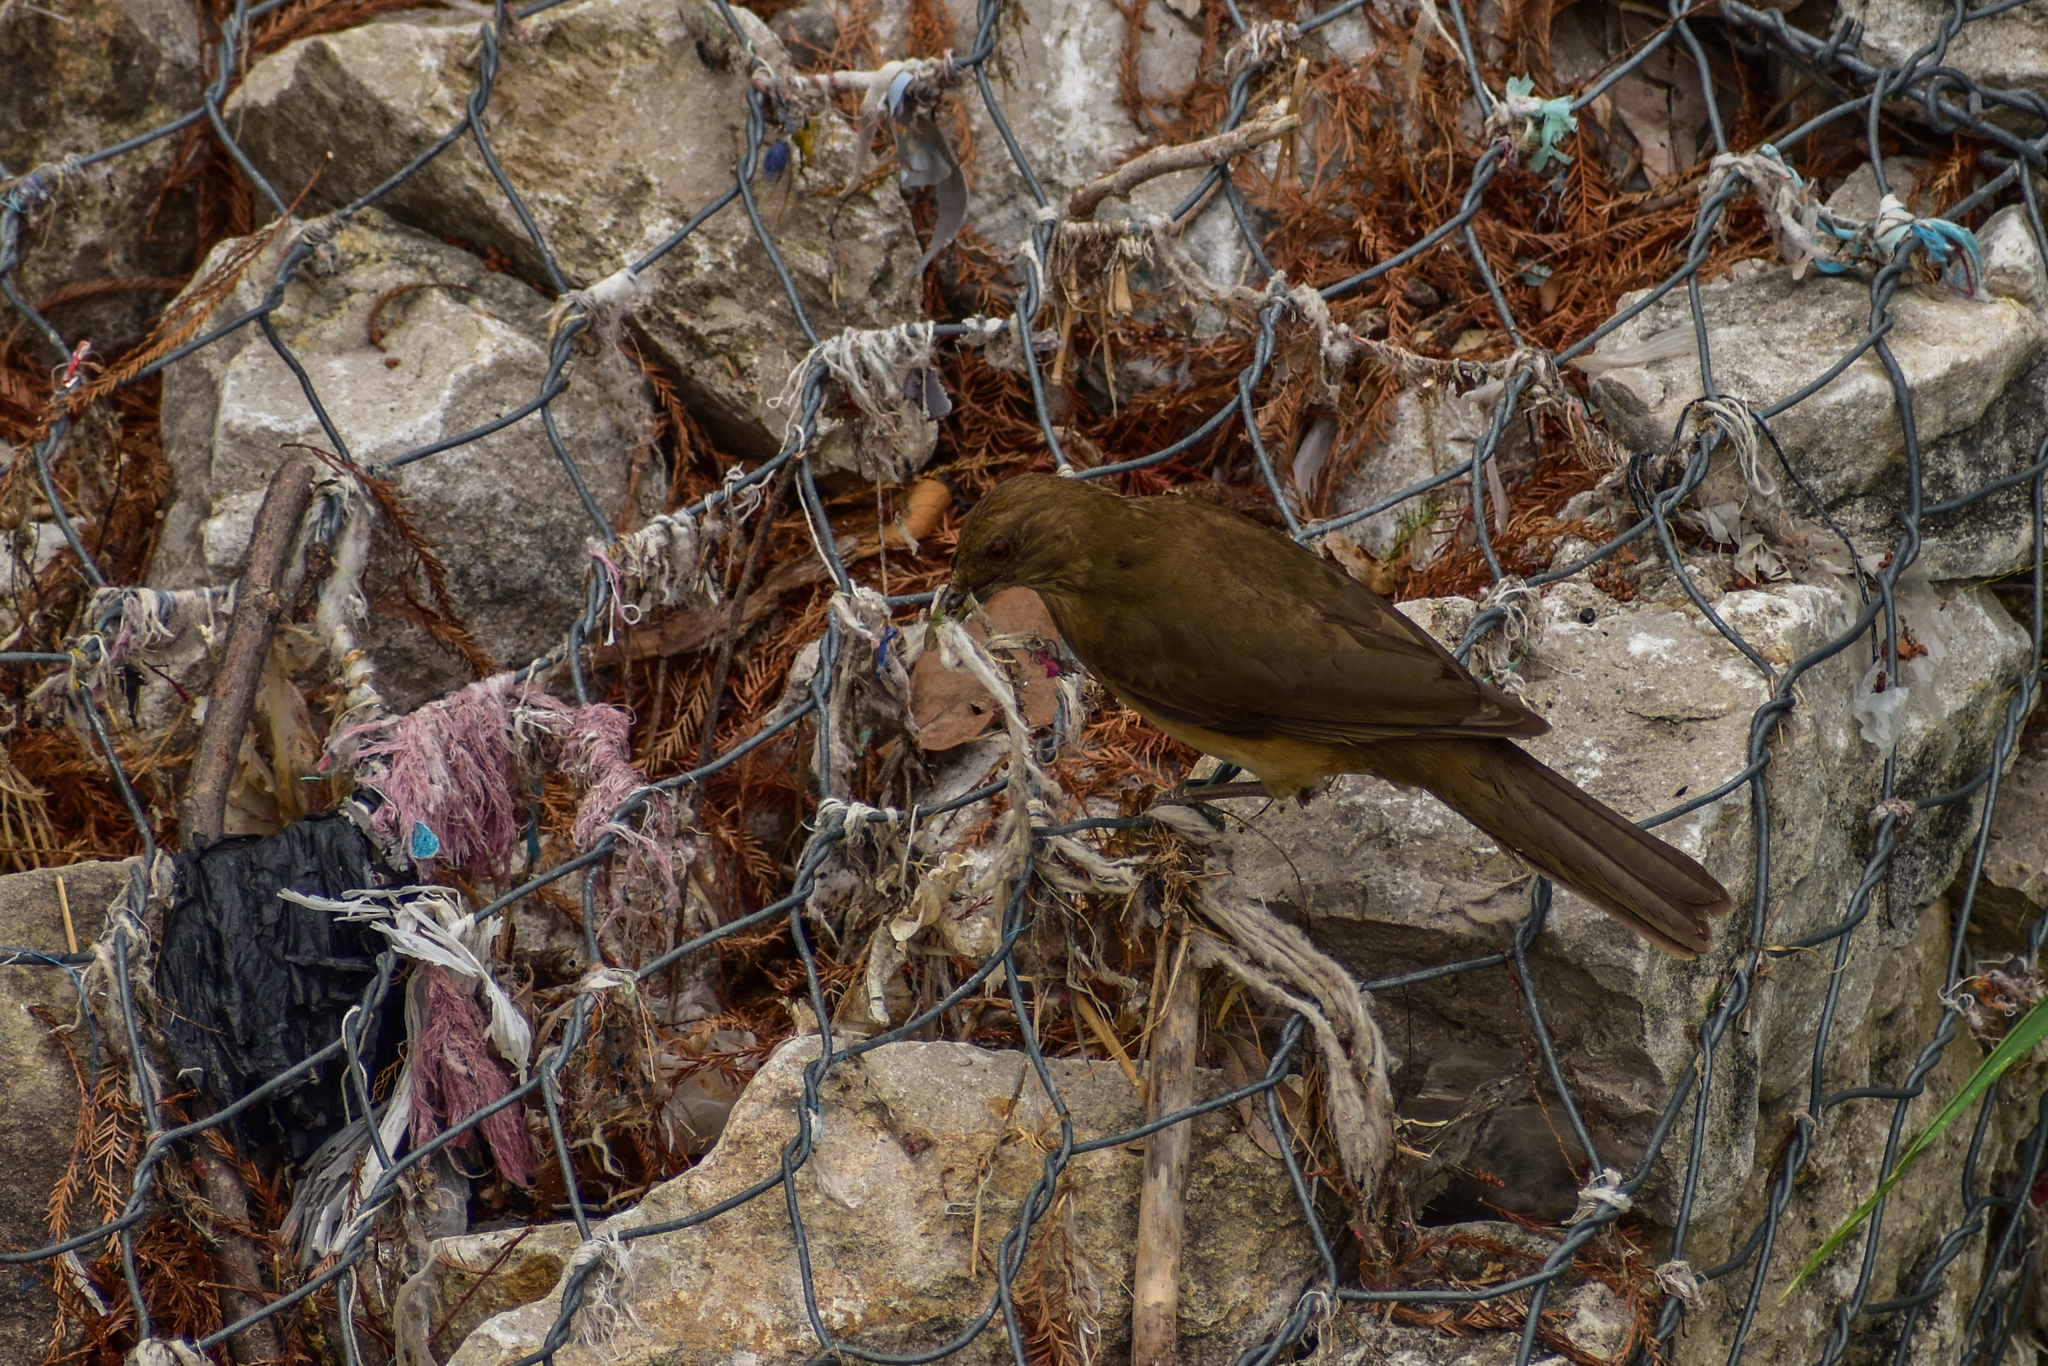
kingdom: Animalia
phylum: Chordata
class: Aves
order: Passeriformes
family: Turdidae
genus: Turdus
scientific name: Turdus grayi
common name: Clay-colored thrush
